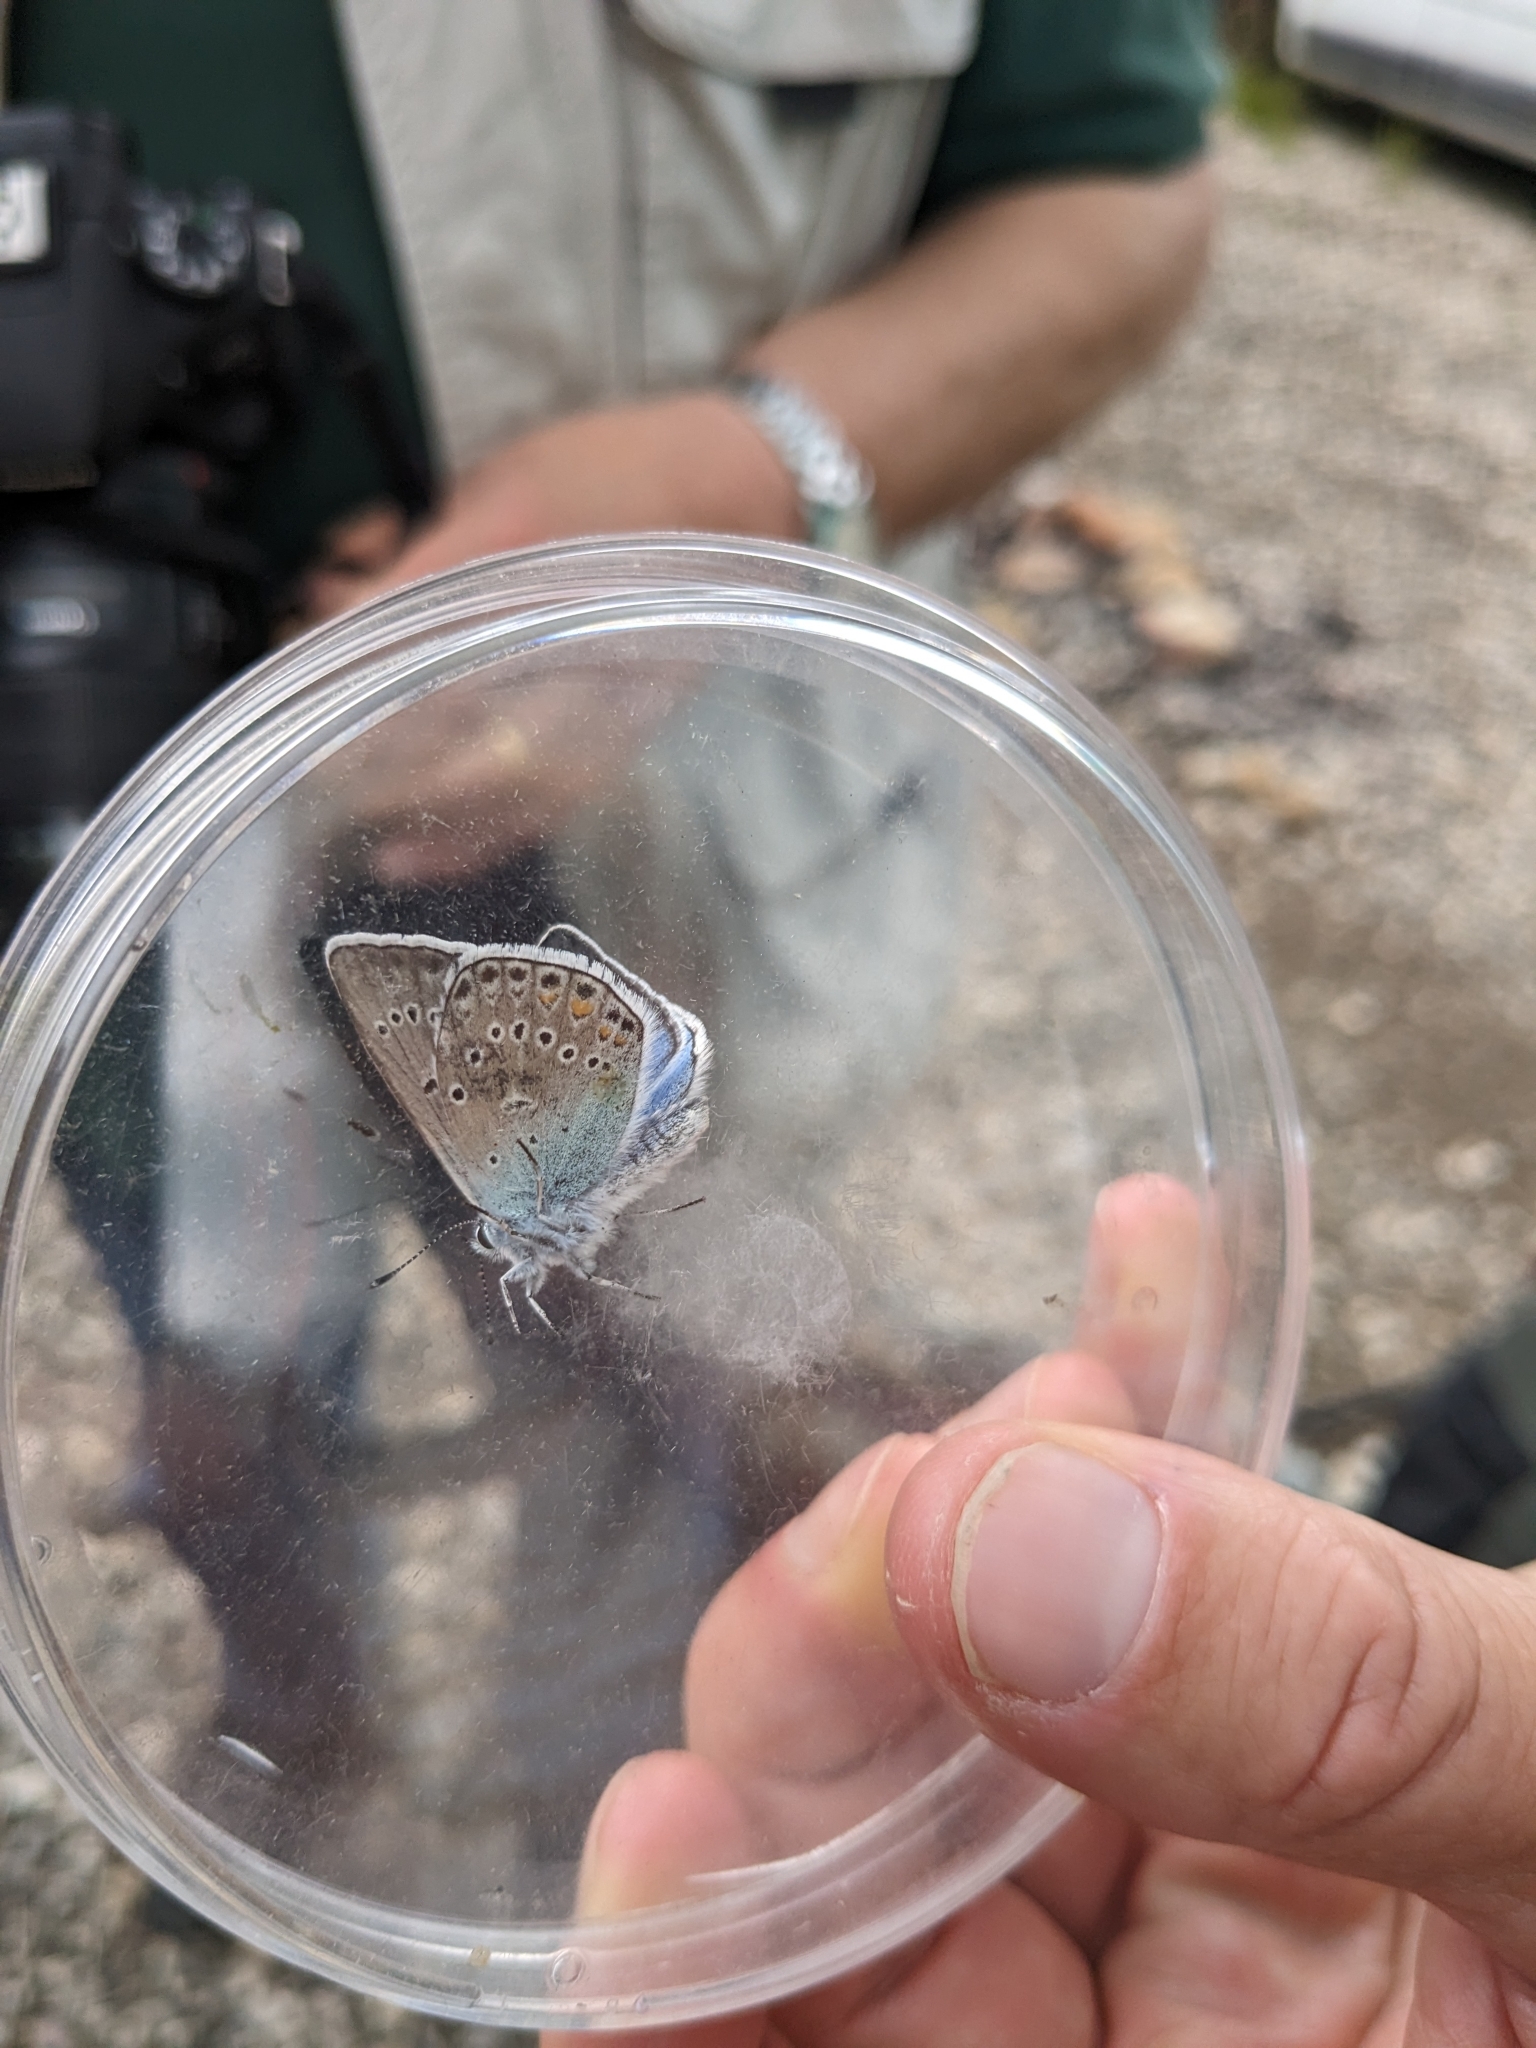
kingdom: Animalia
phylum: Arthropoda
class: Insecta
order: Lepidoptera
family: Lycaenidae
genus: Plebejus
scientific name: Plebejus amanda
